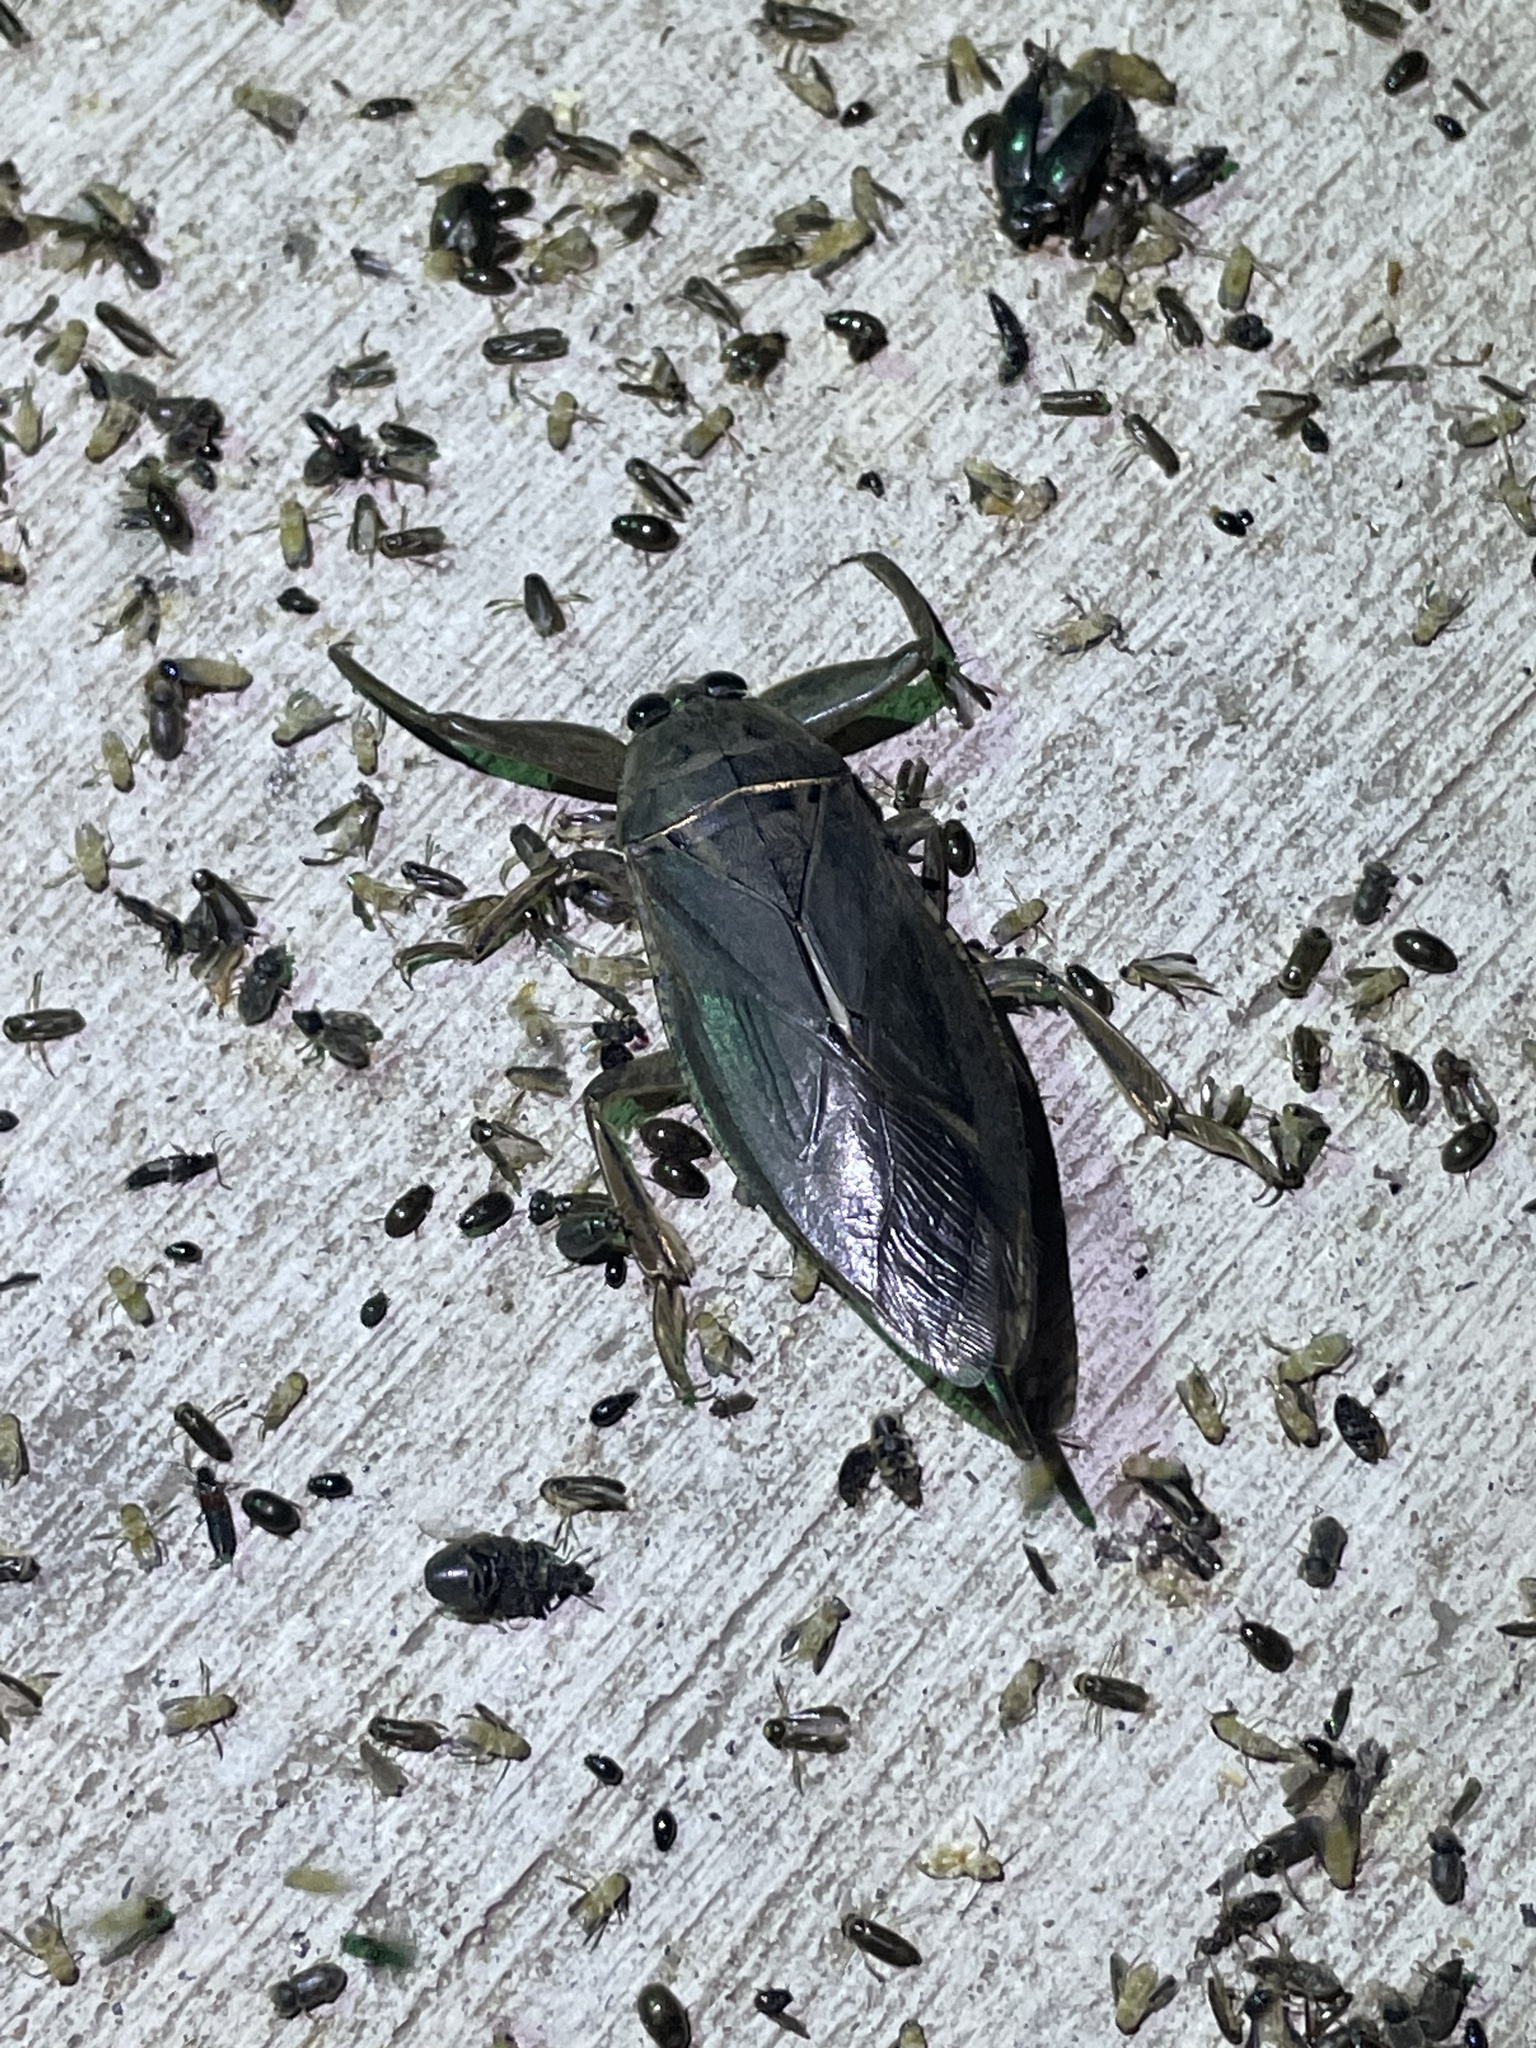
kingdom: Animalia
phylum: Arthropoda
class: Insecta
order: Hemiptera
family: Belostomatidae
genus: Lethocerus
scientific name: Lethocerus uhleri
